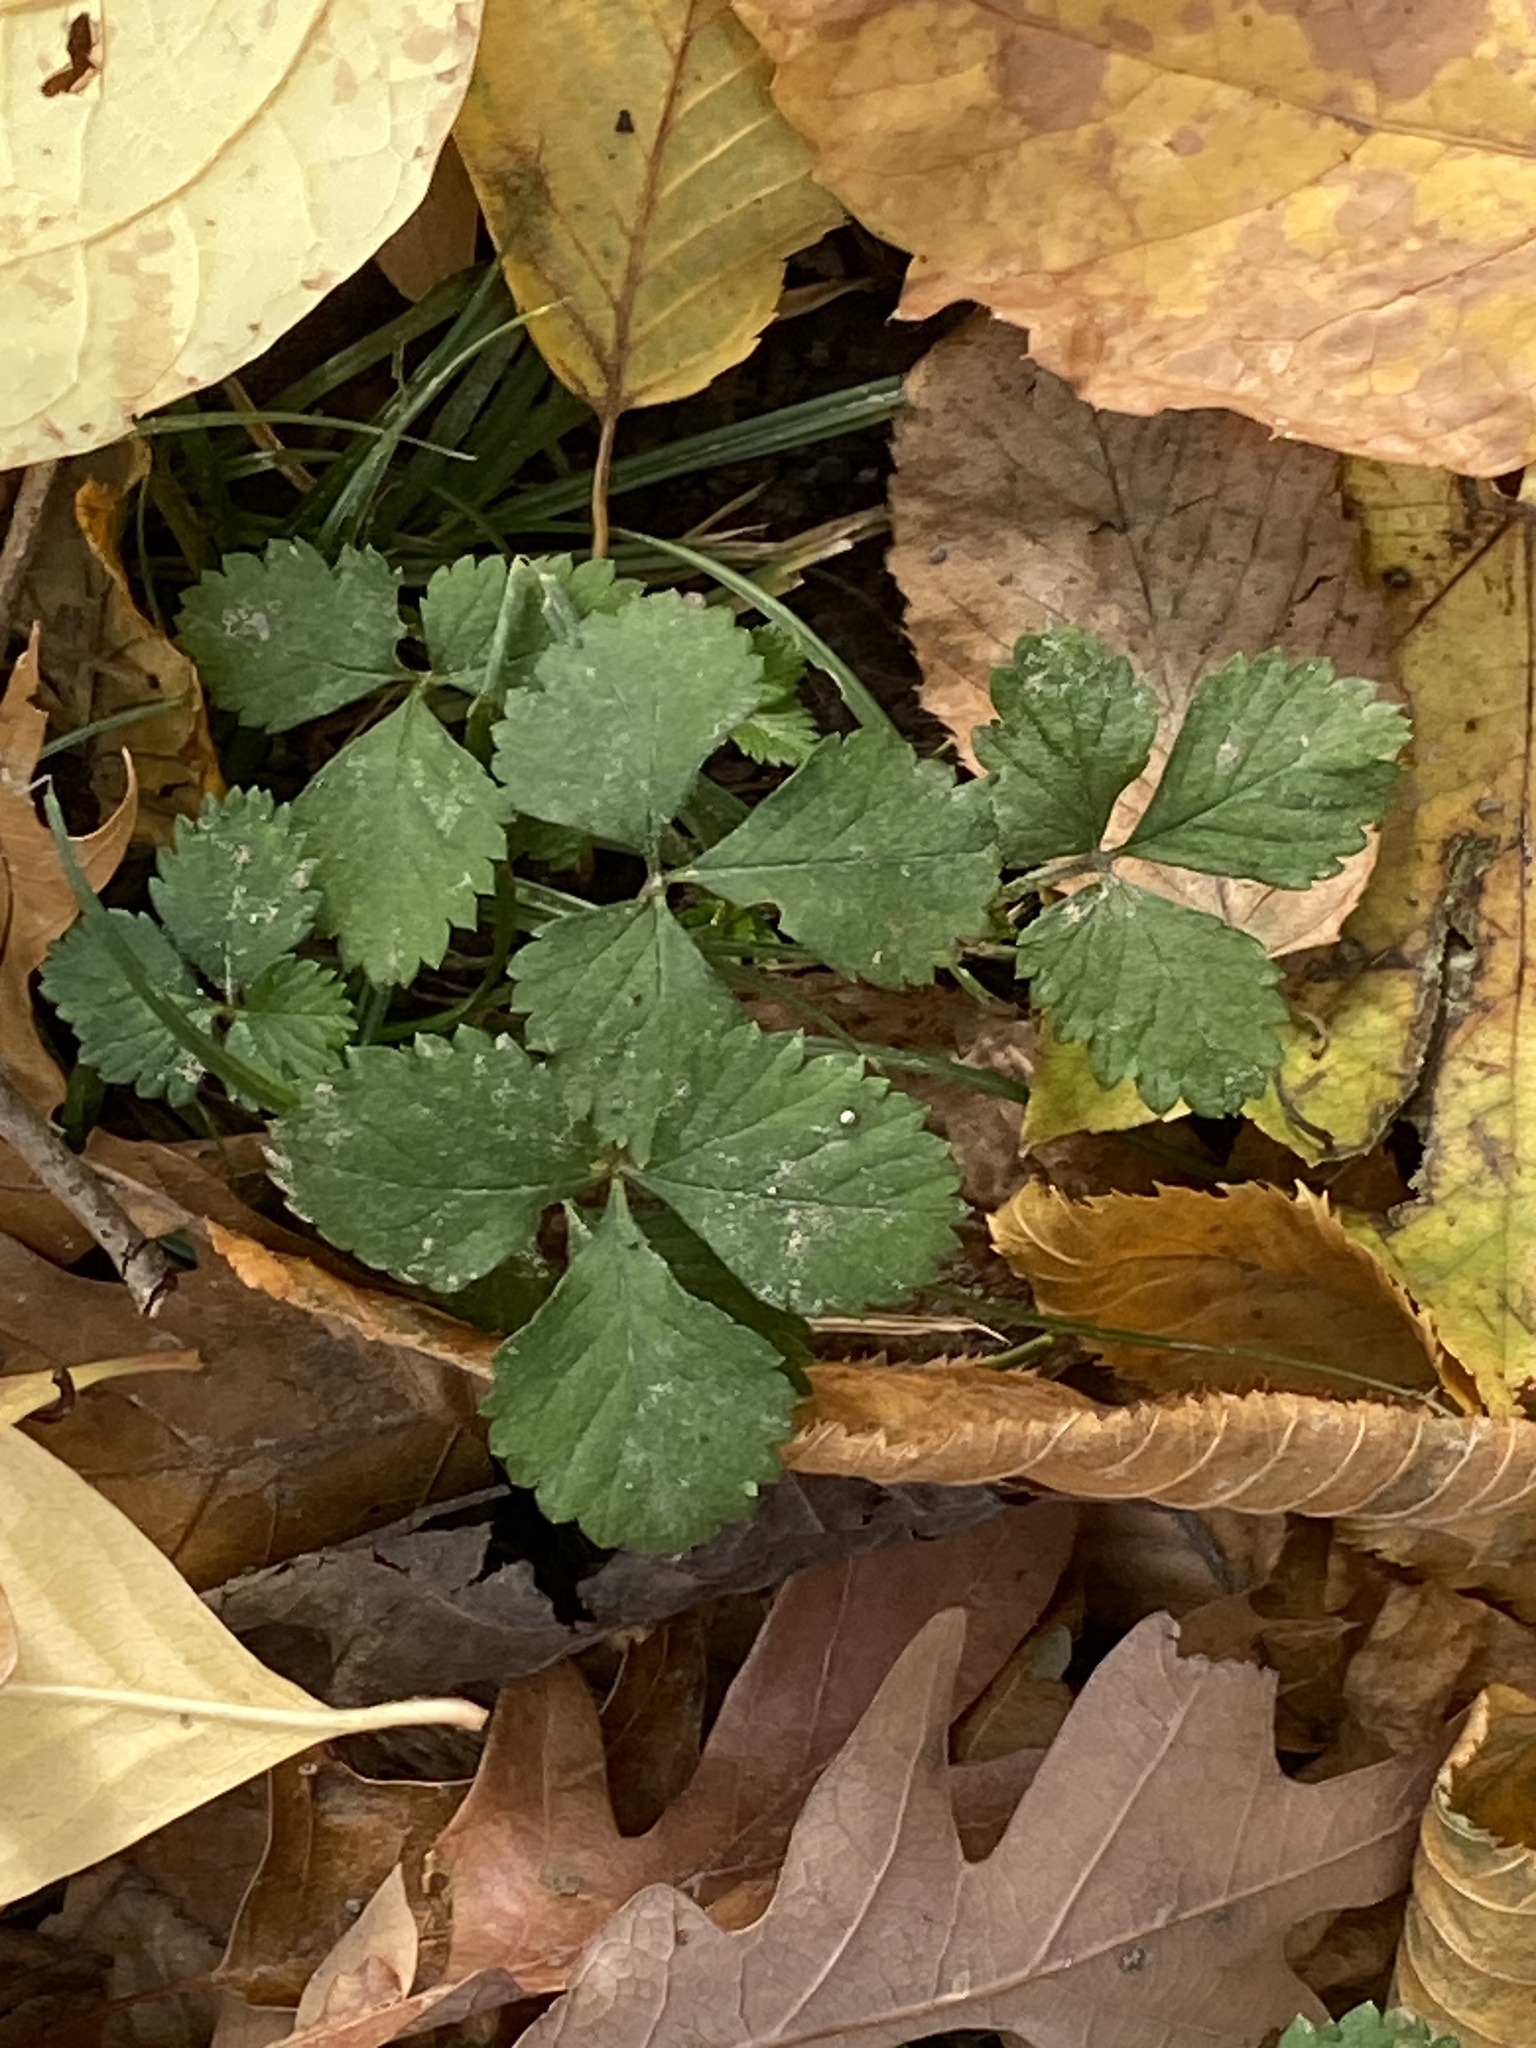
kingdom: Plantae
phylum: Tracheophyta
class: Magnoliopsida
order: Rosales
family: Rosaceae
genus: Potentilla
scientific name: Potentilla indica
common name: Yellow-flowered strawberry
